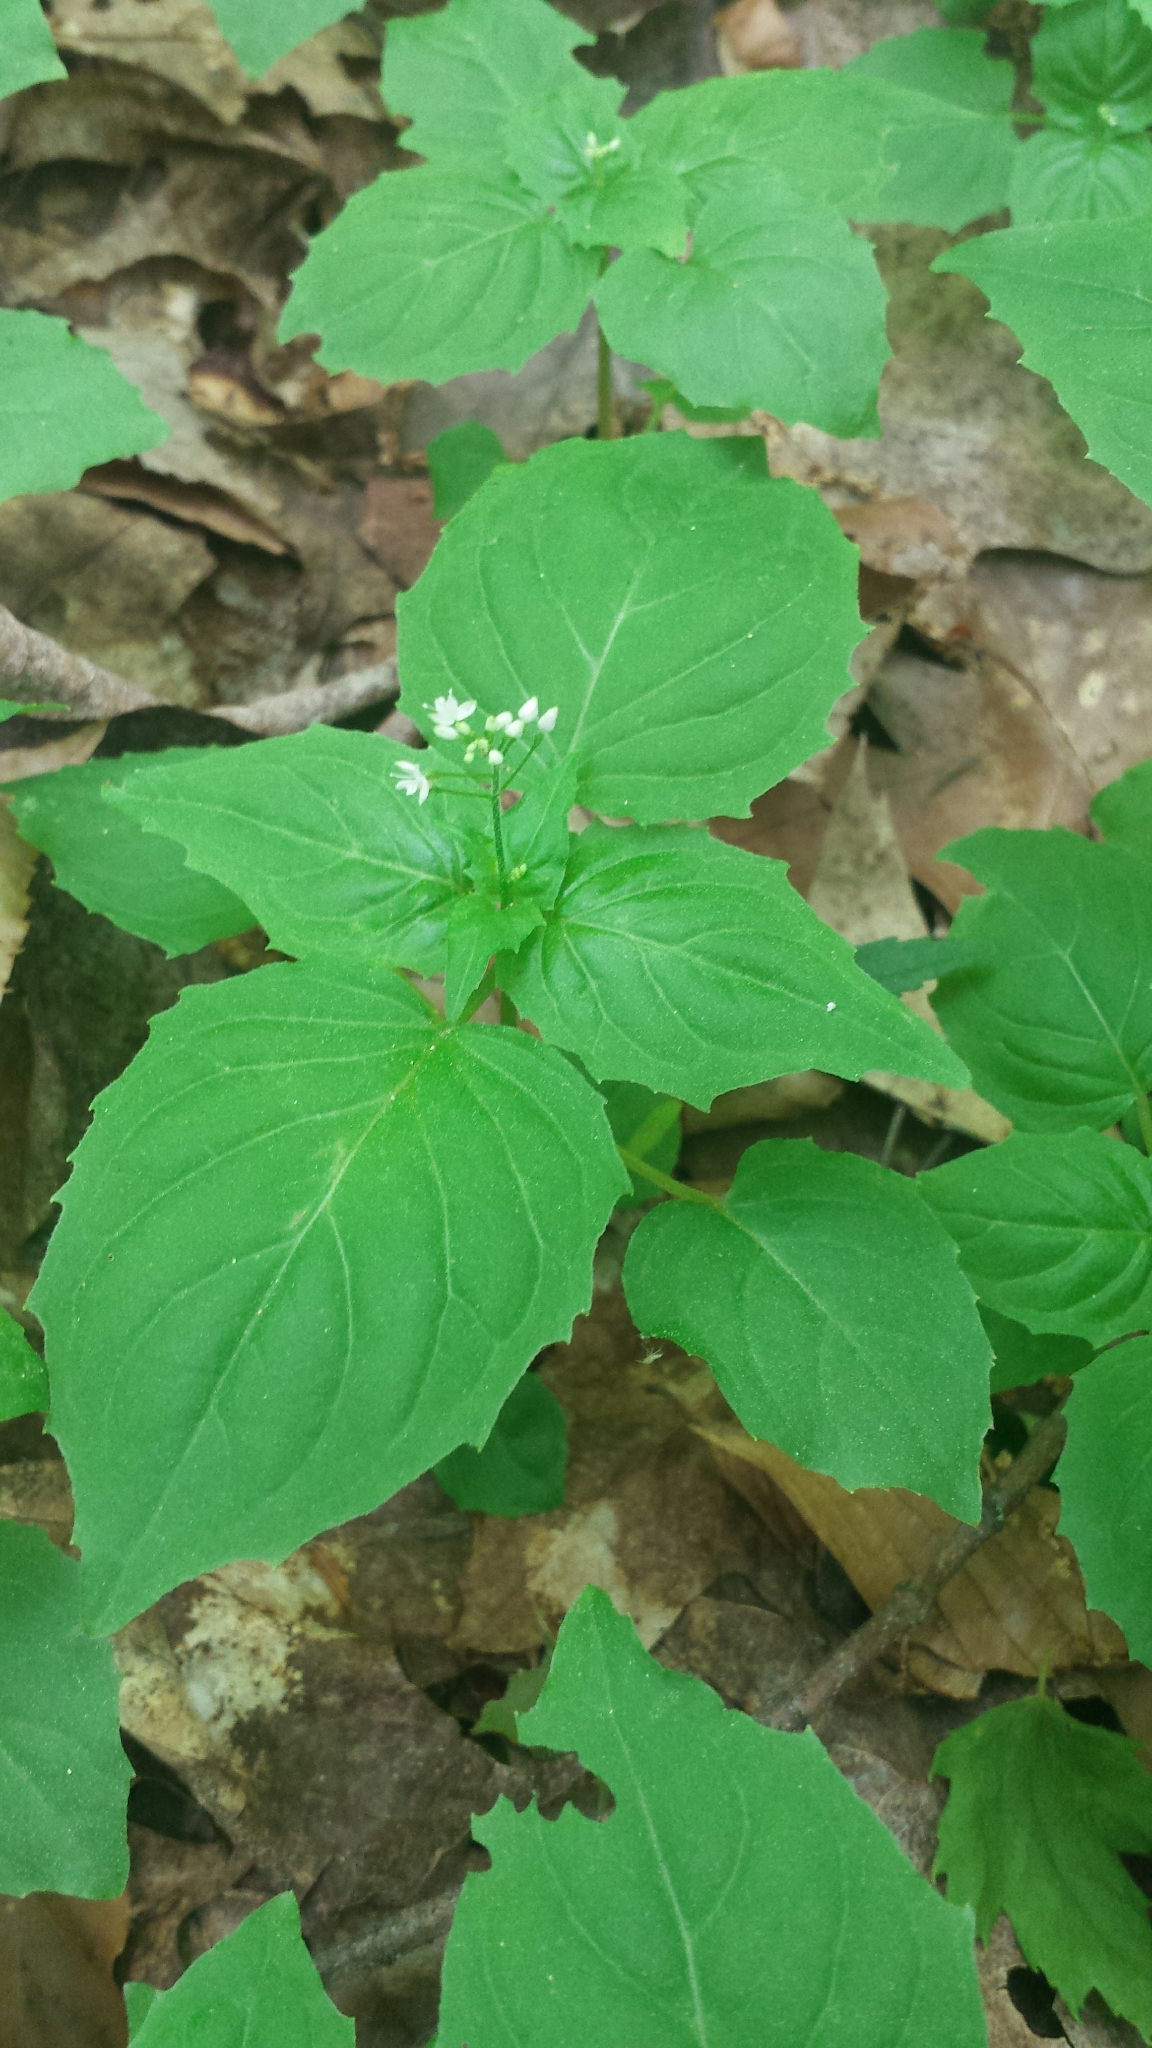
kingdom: Plantae
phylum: Tracheophyta
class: Magnoliopsida
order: Myrtales
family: Onagraceae
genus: Circaea
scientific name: Circaea alpina
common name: Alpine enchanter's-nightshade
